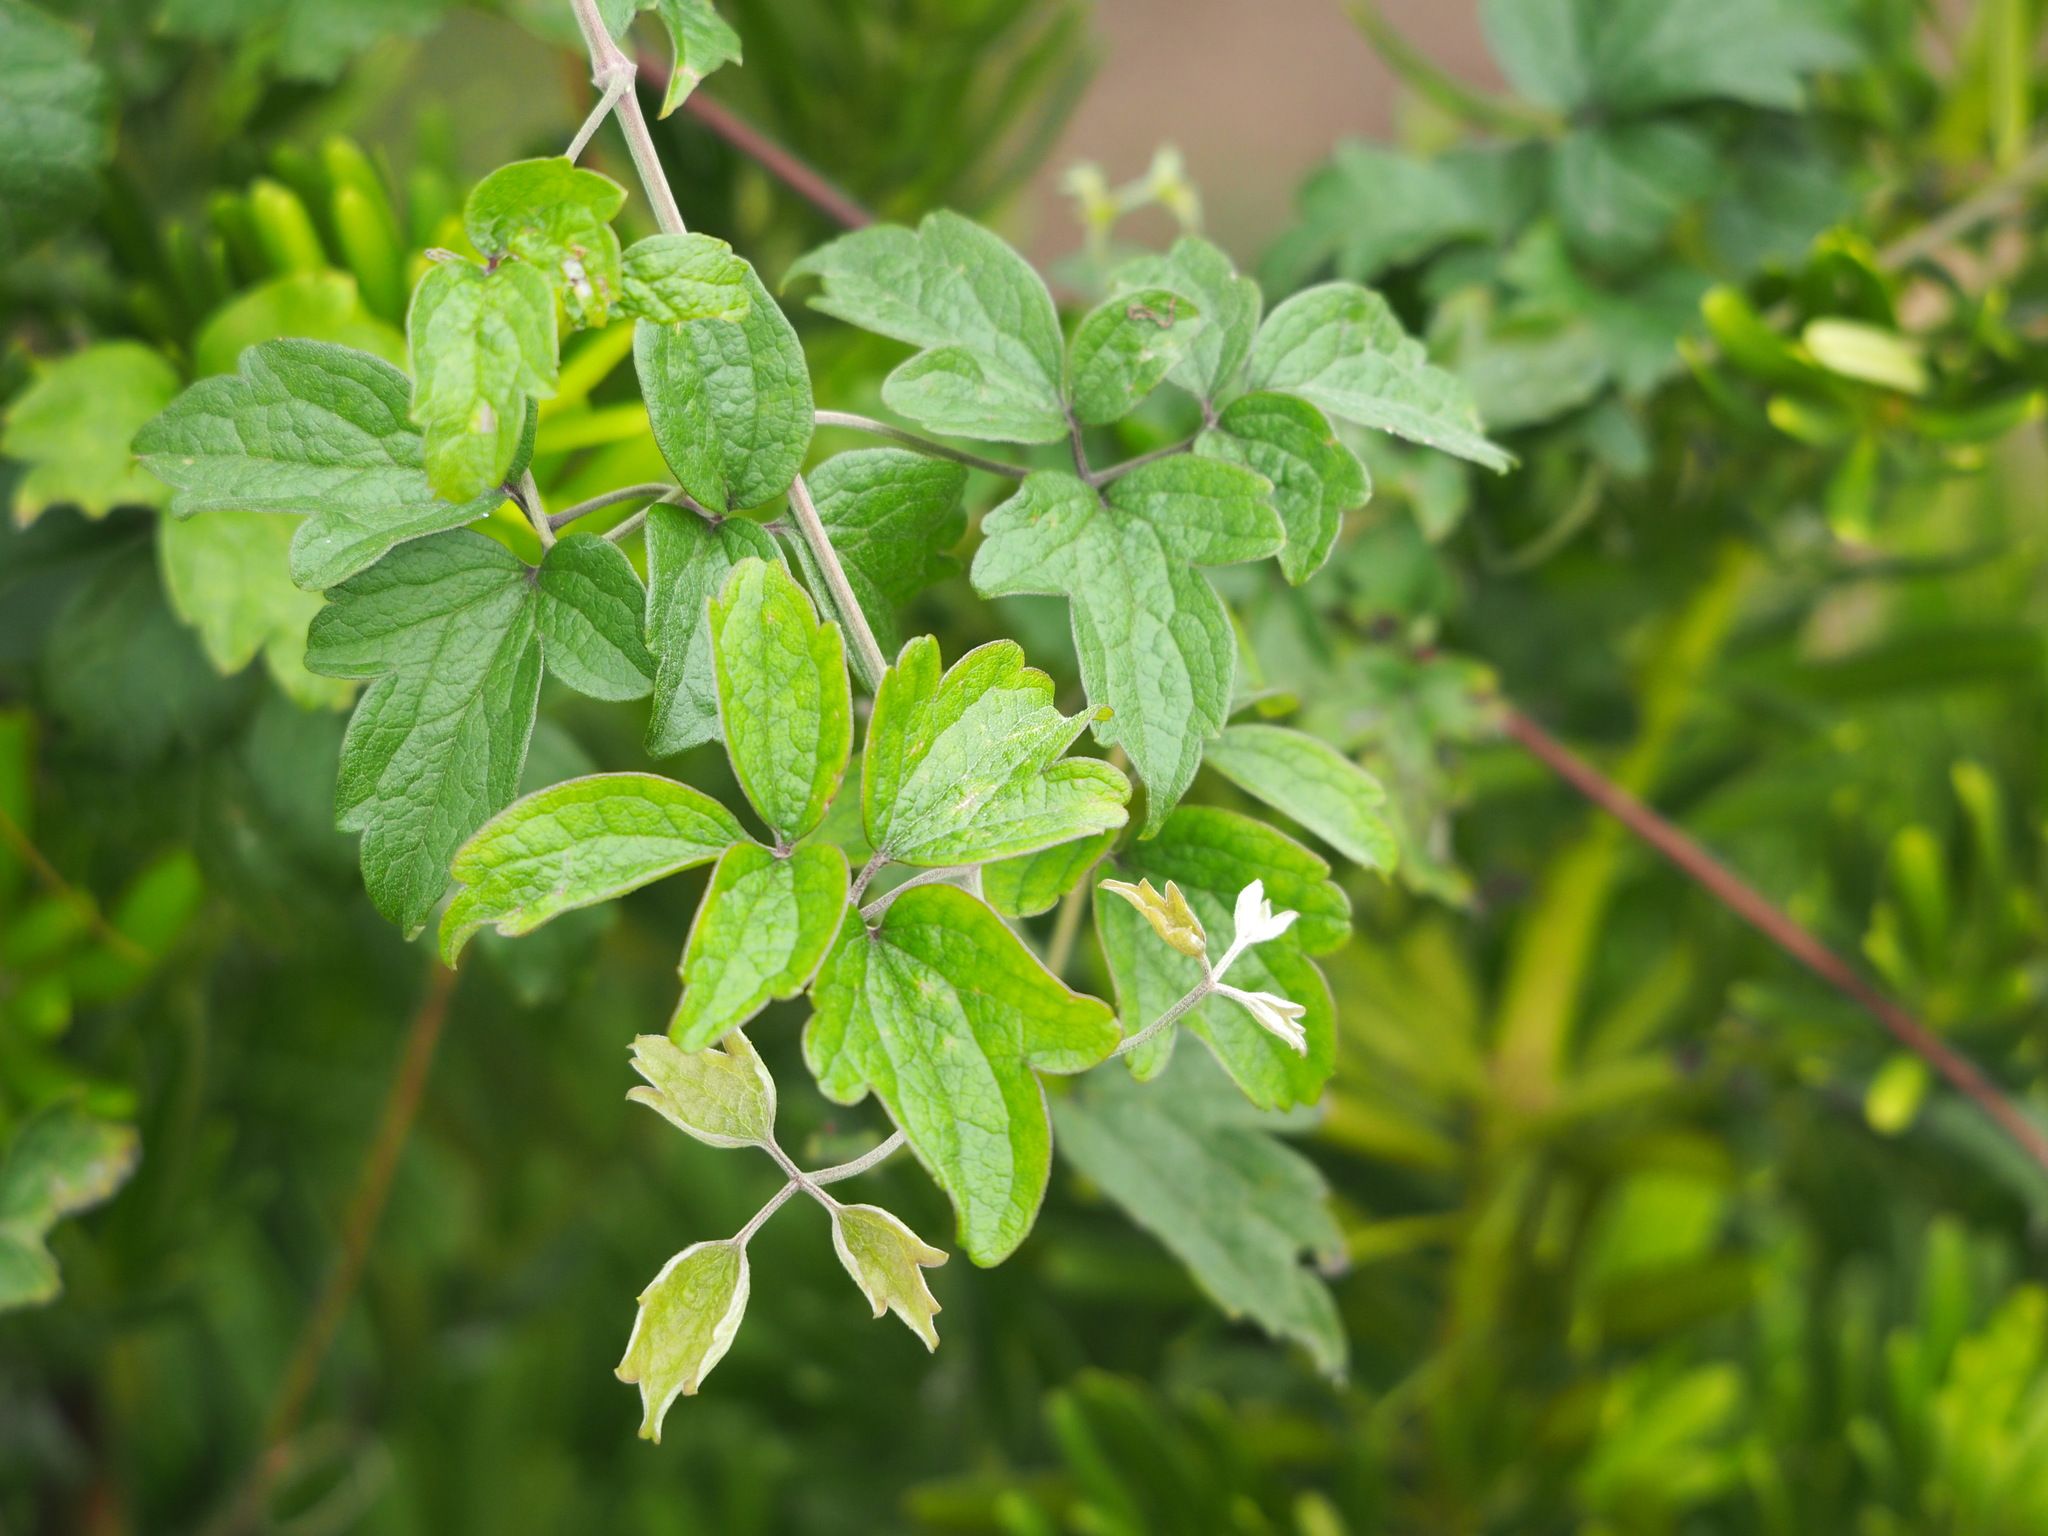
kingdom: Plantae
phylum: Tracheophyta
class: Magnoliopsida
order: Ranunculales
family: Ranunculaceae
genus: Clematis
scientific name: Clematis grata
